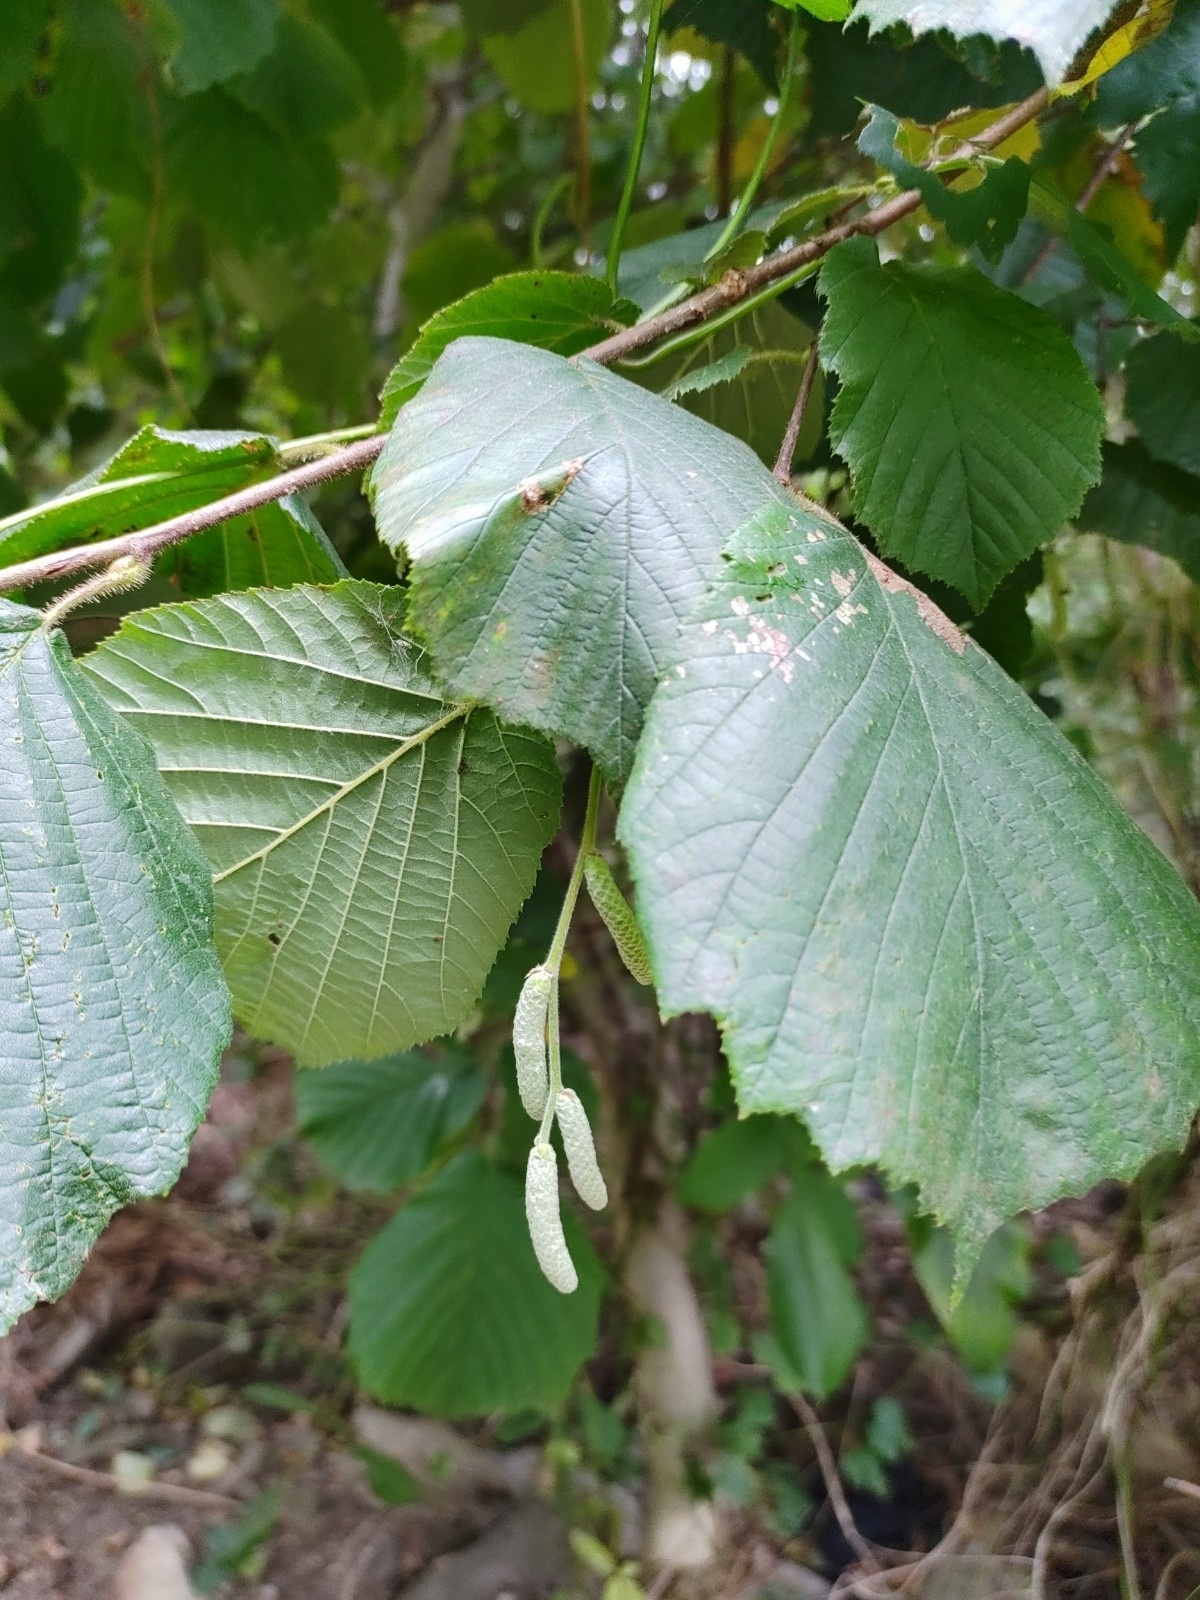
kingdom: Plantae
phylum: Tracheophyta
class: Magnoliopsida
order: Fagales
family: Betulaceae
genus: Corylus
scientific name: Corylus avellana
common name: European hazel
